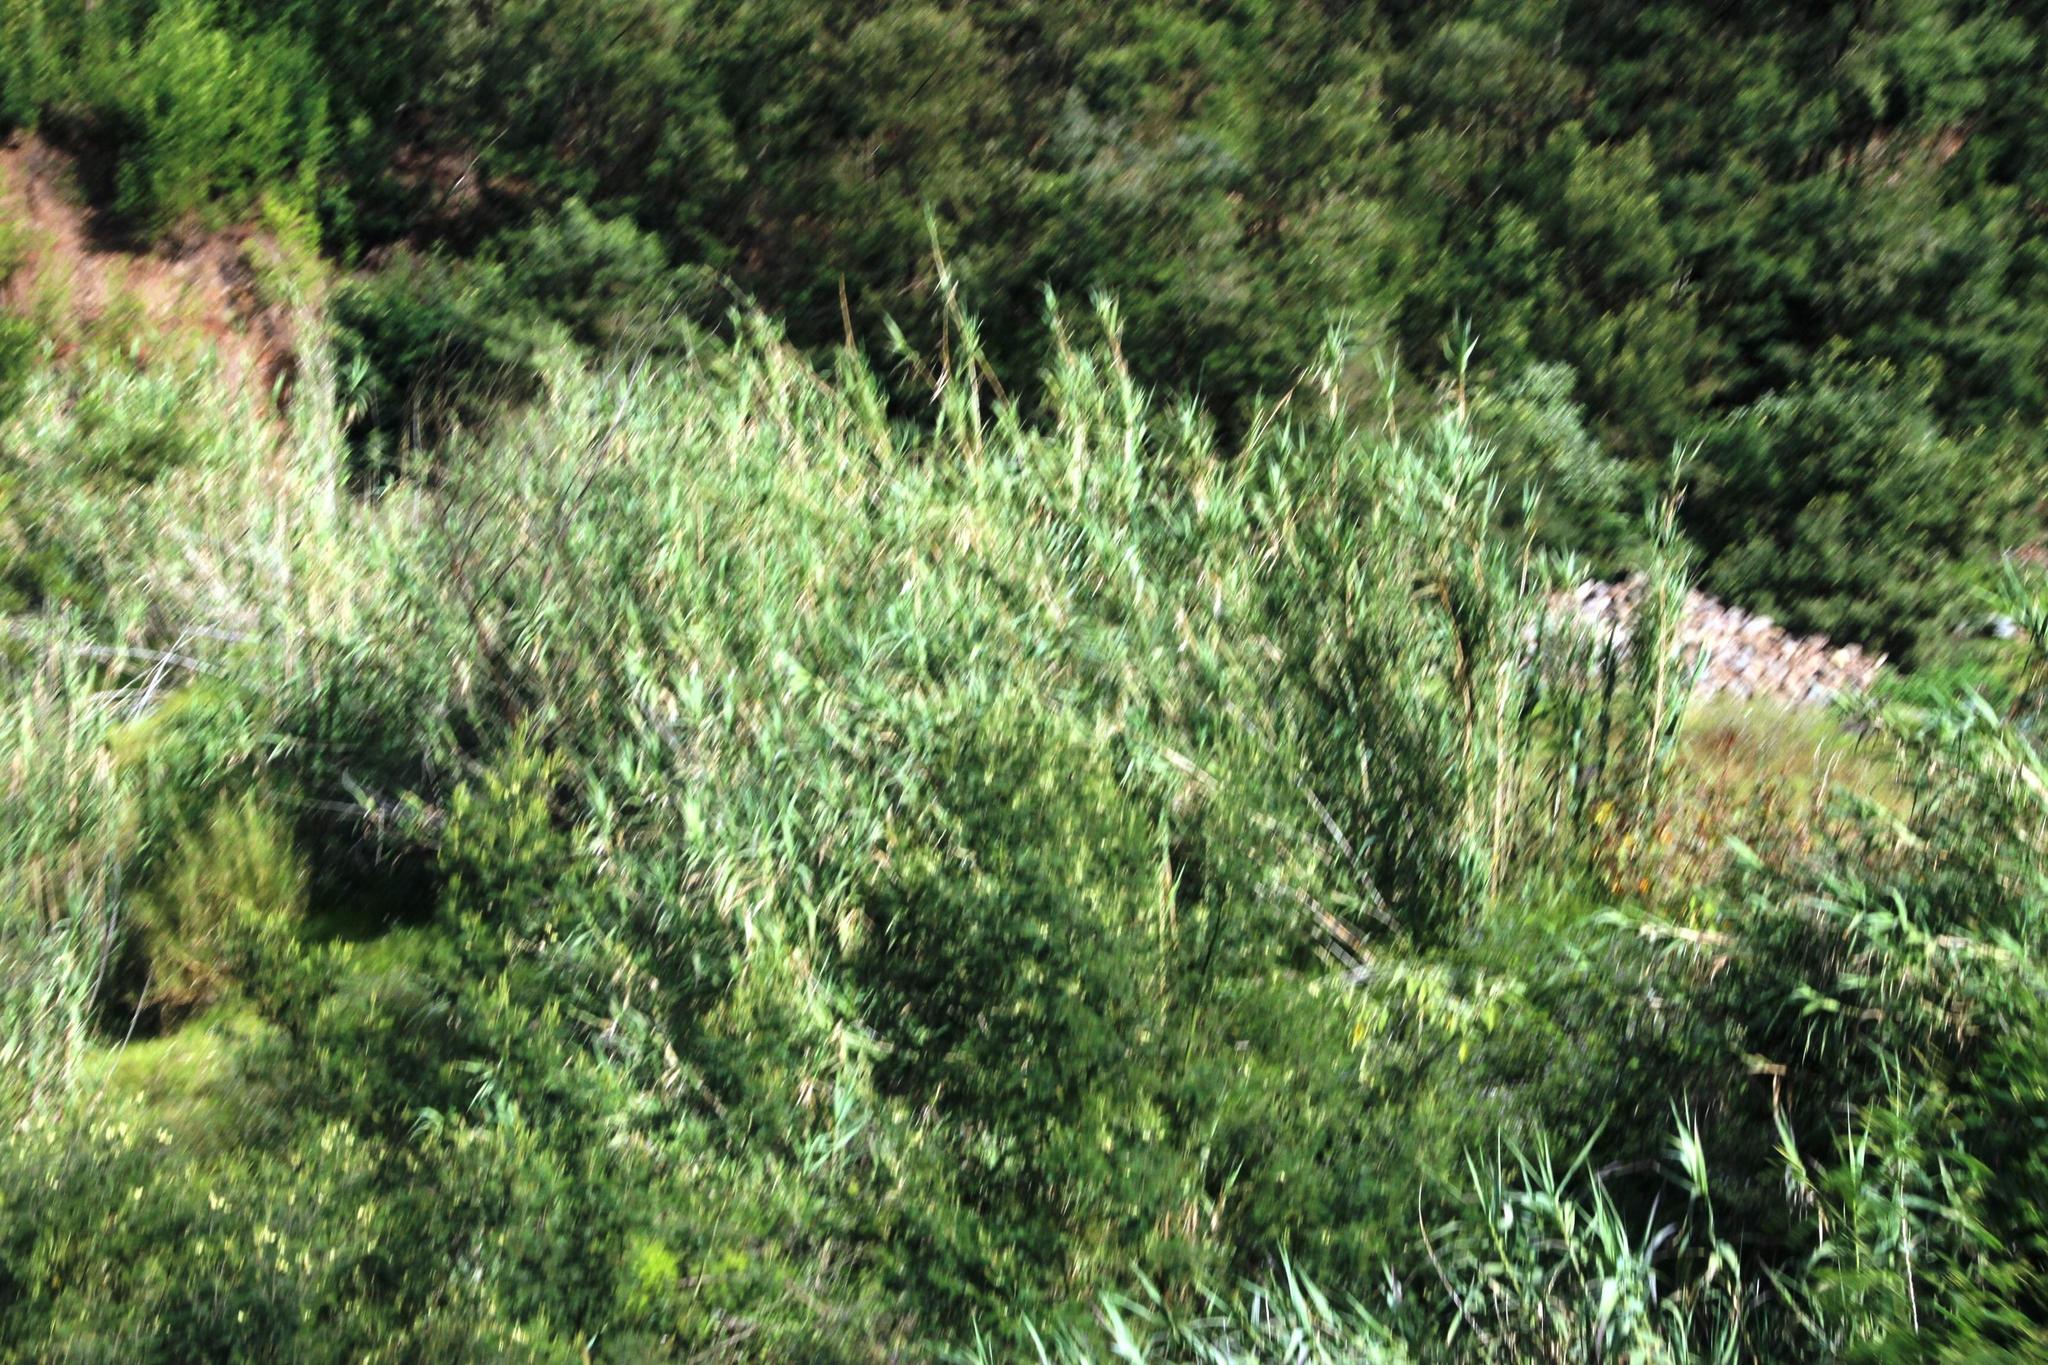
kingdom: Plantae
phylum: Tracheophyta
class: Liliopsida
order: Poales
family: Poaceae
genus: Arundo
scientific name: Arundo donax
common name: Giant reed
